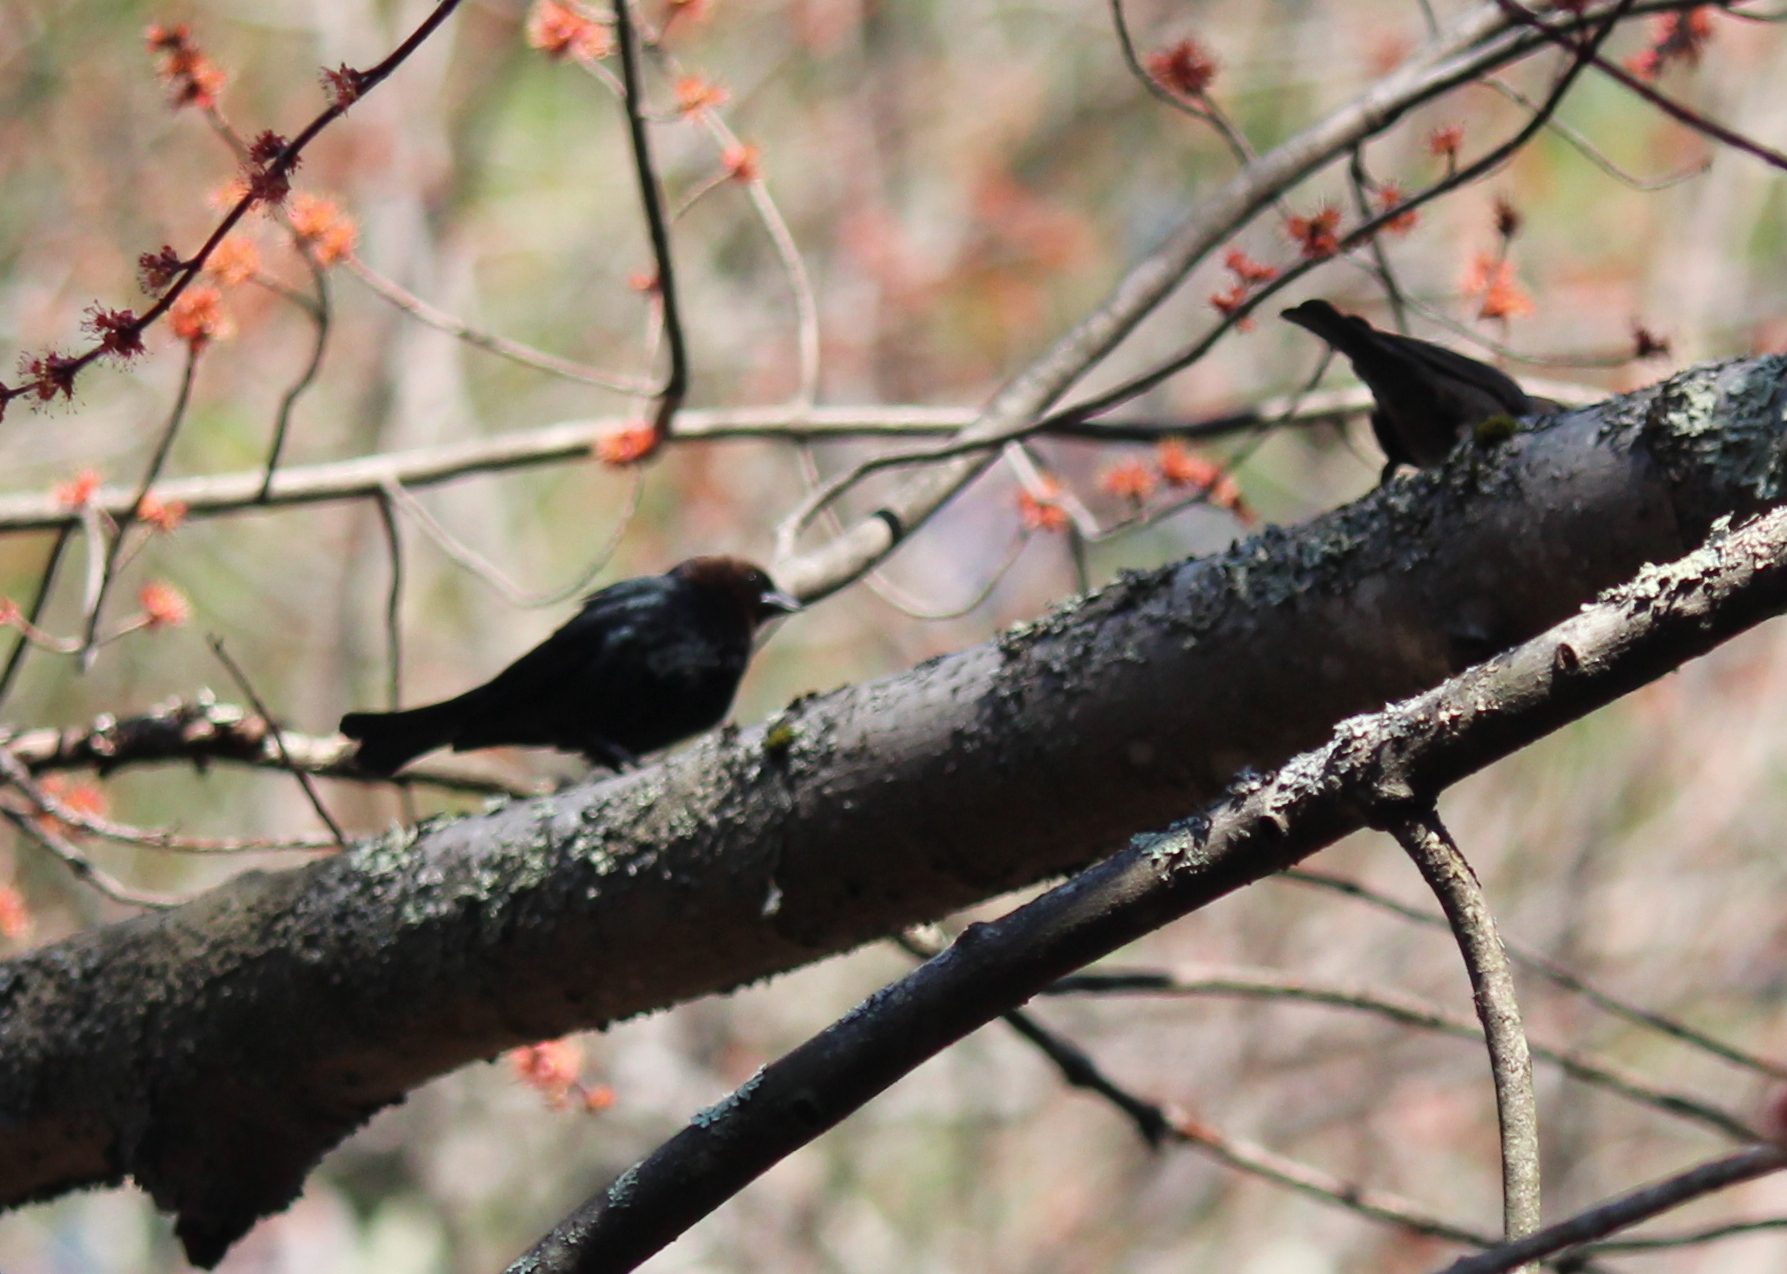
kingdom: Animalia
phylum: Chordata
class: Aves
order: Passeriformes
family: Icteridae
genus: Molothrus
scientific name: Molothrus ater
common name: Brown-headed cowbird
